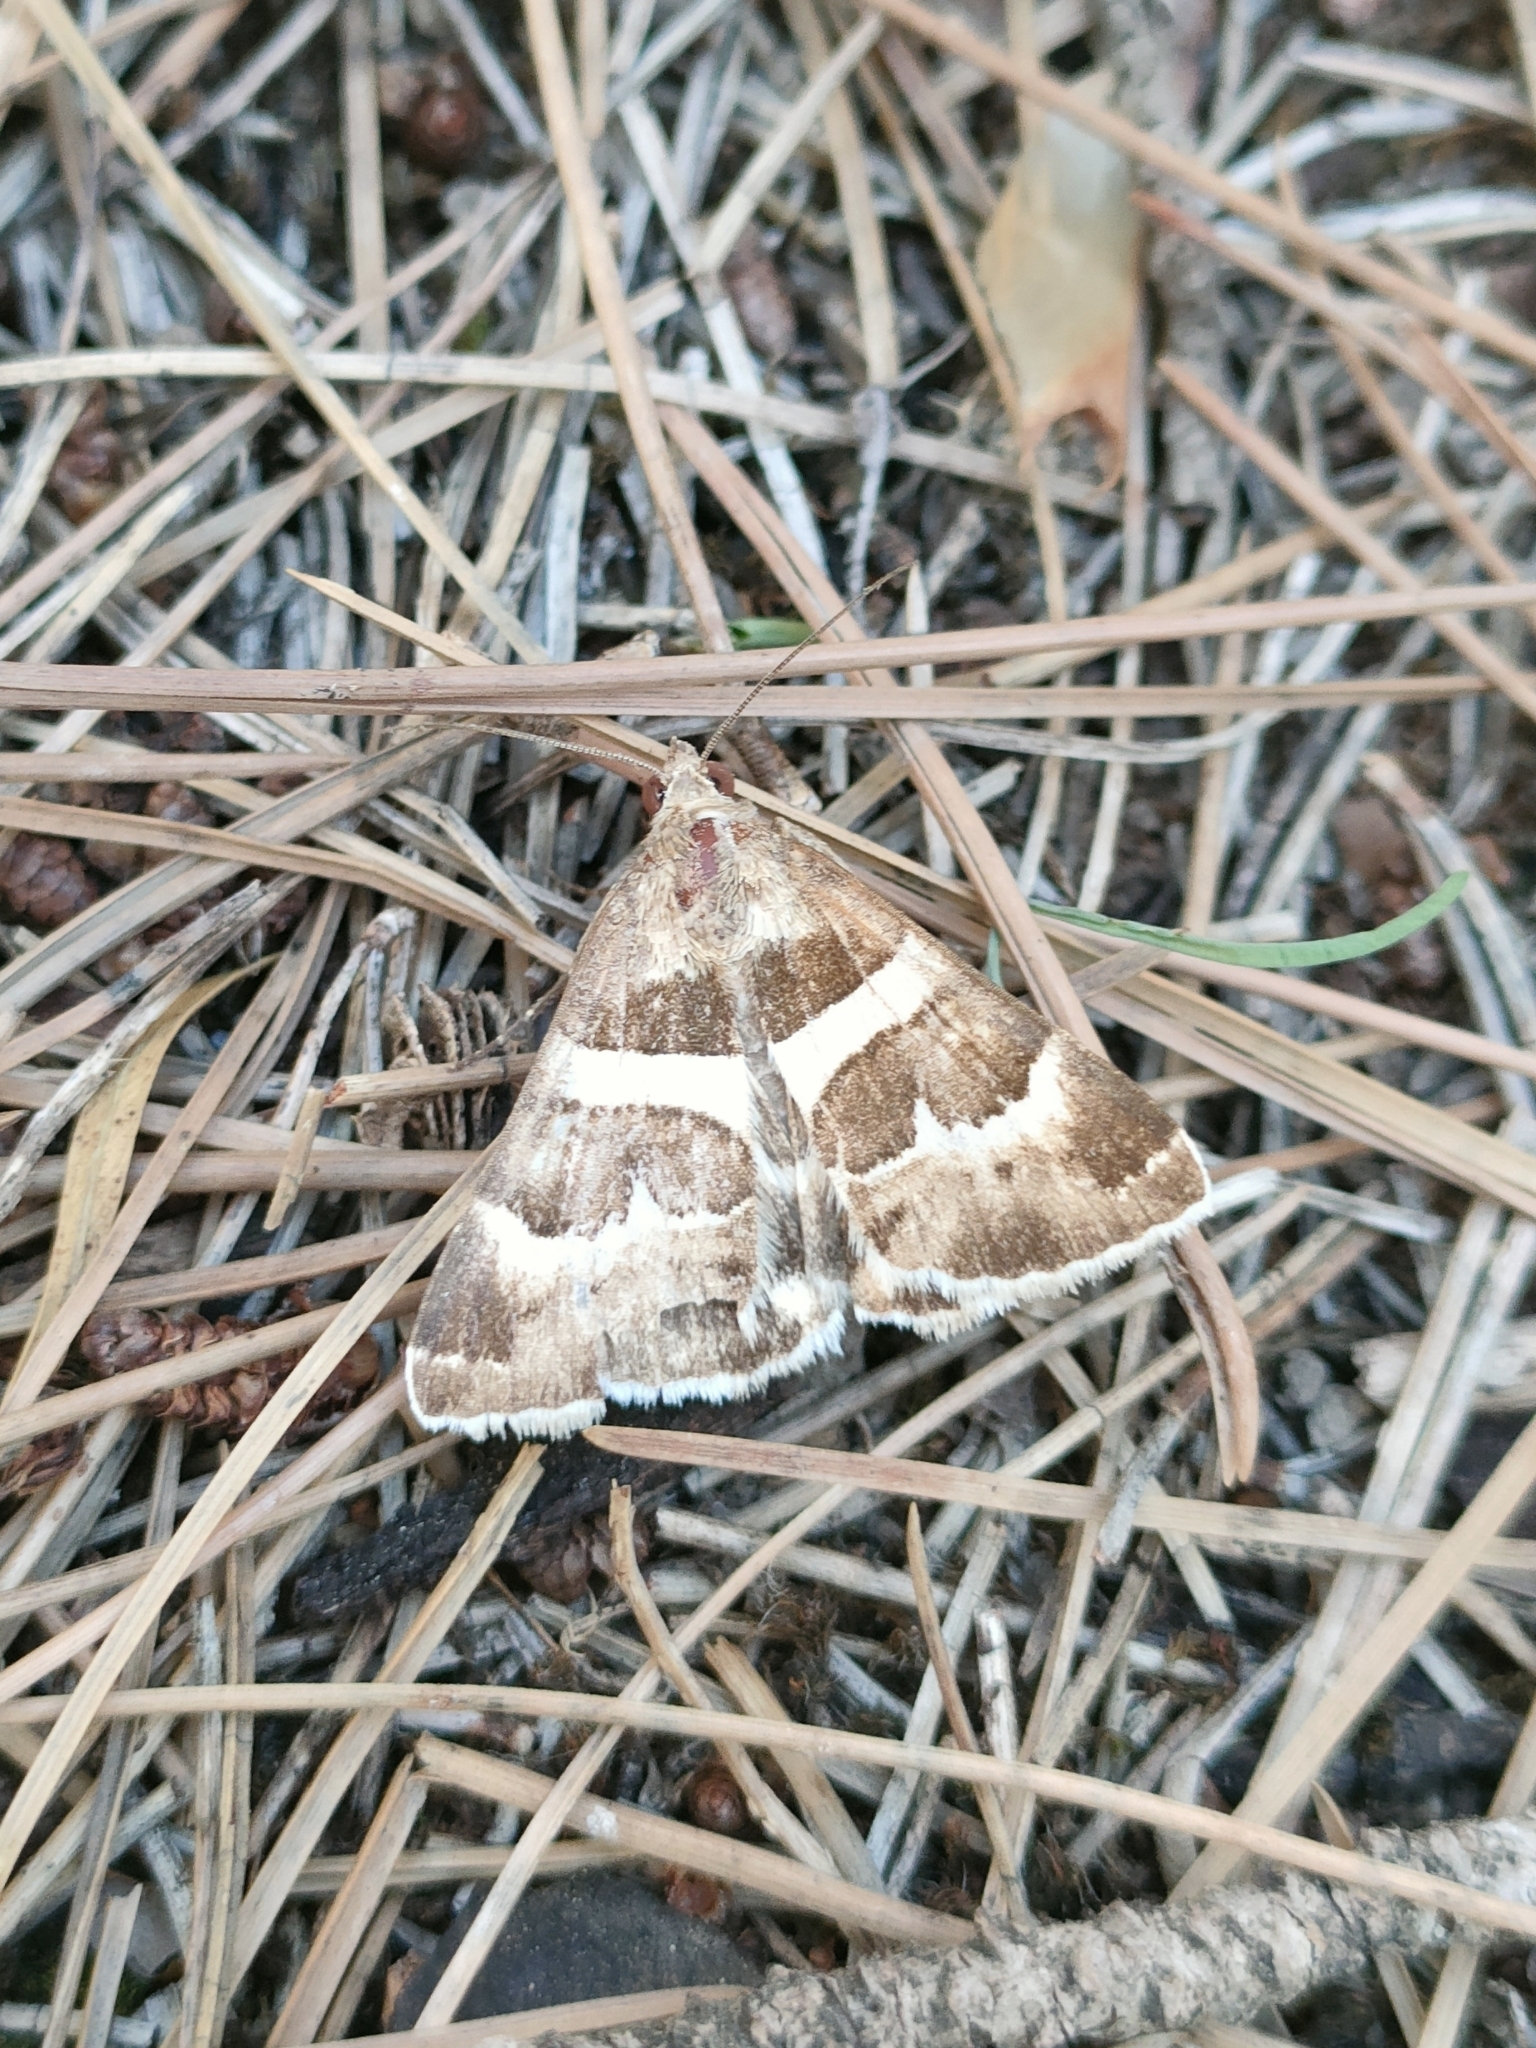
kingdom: Animalia
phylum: Arthropoda
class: Insecta
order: Lepidoptera
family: Erebidae
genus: Grammodes
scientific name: Grammodes stolida
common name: Geometrician
